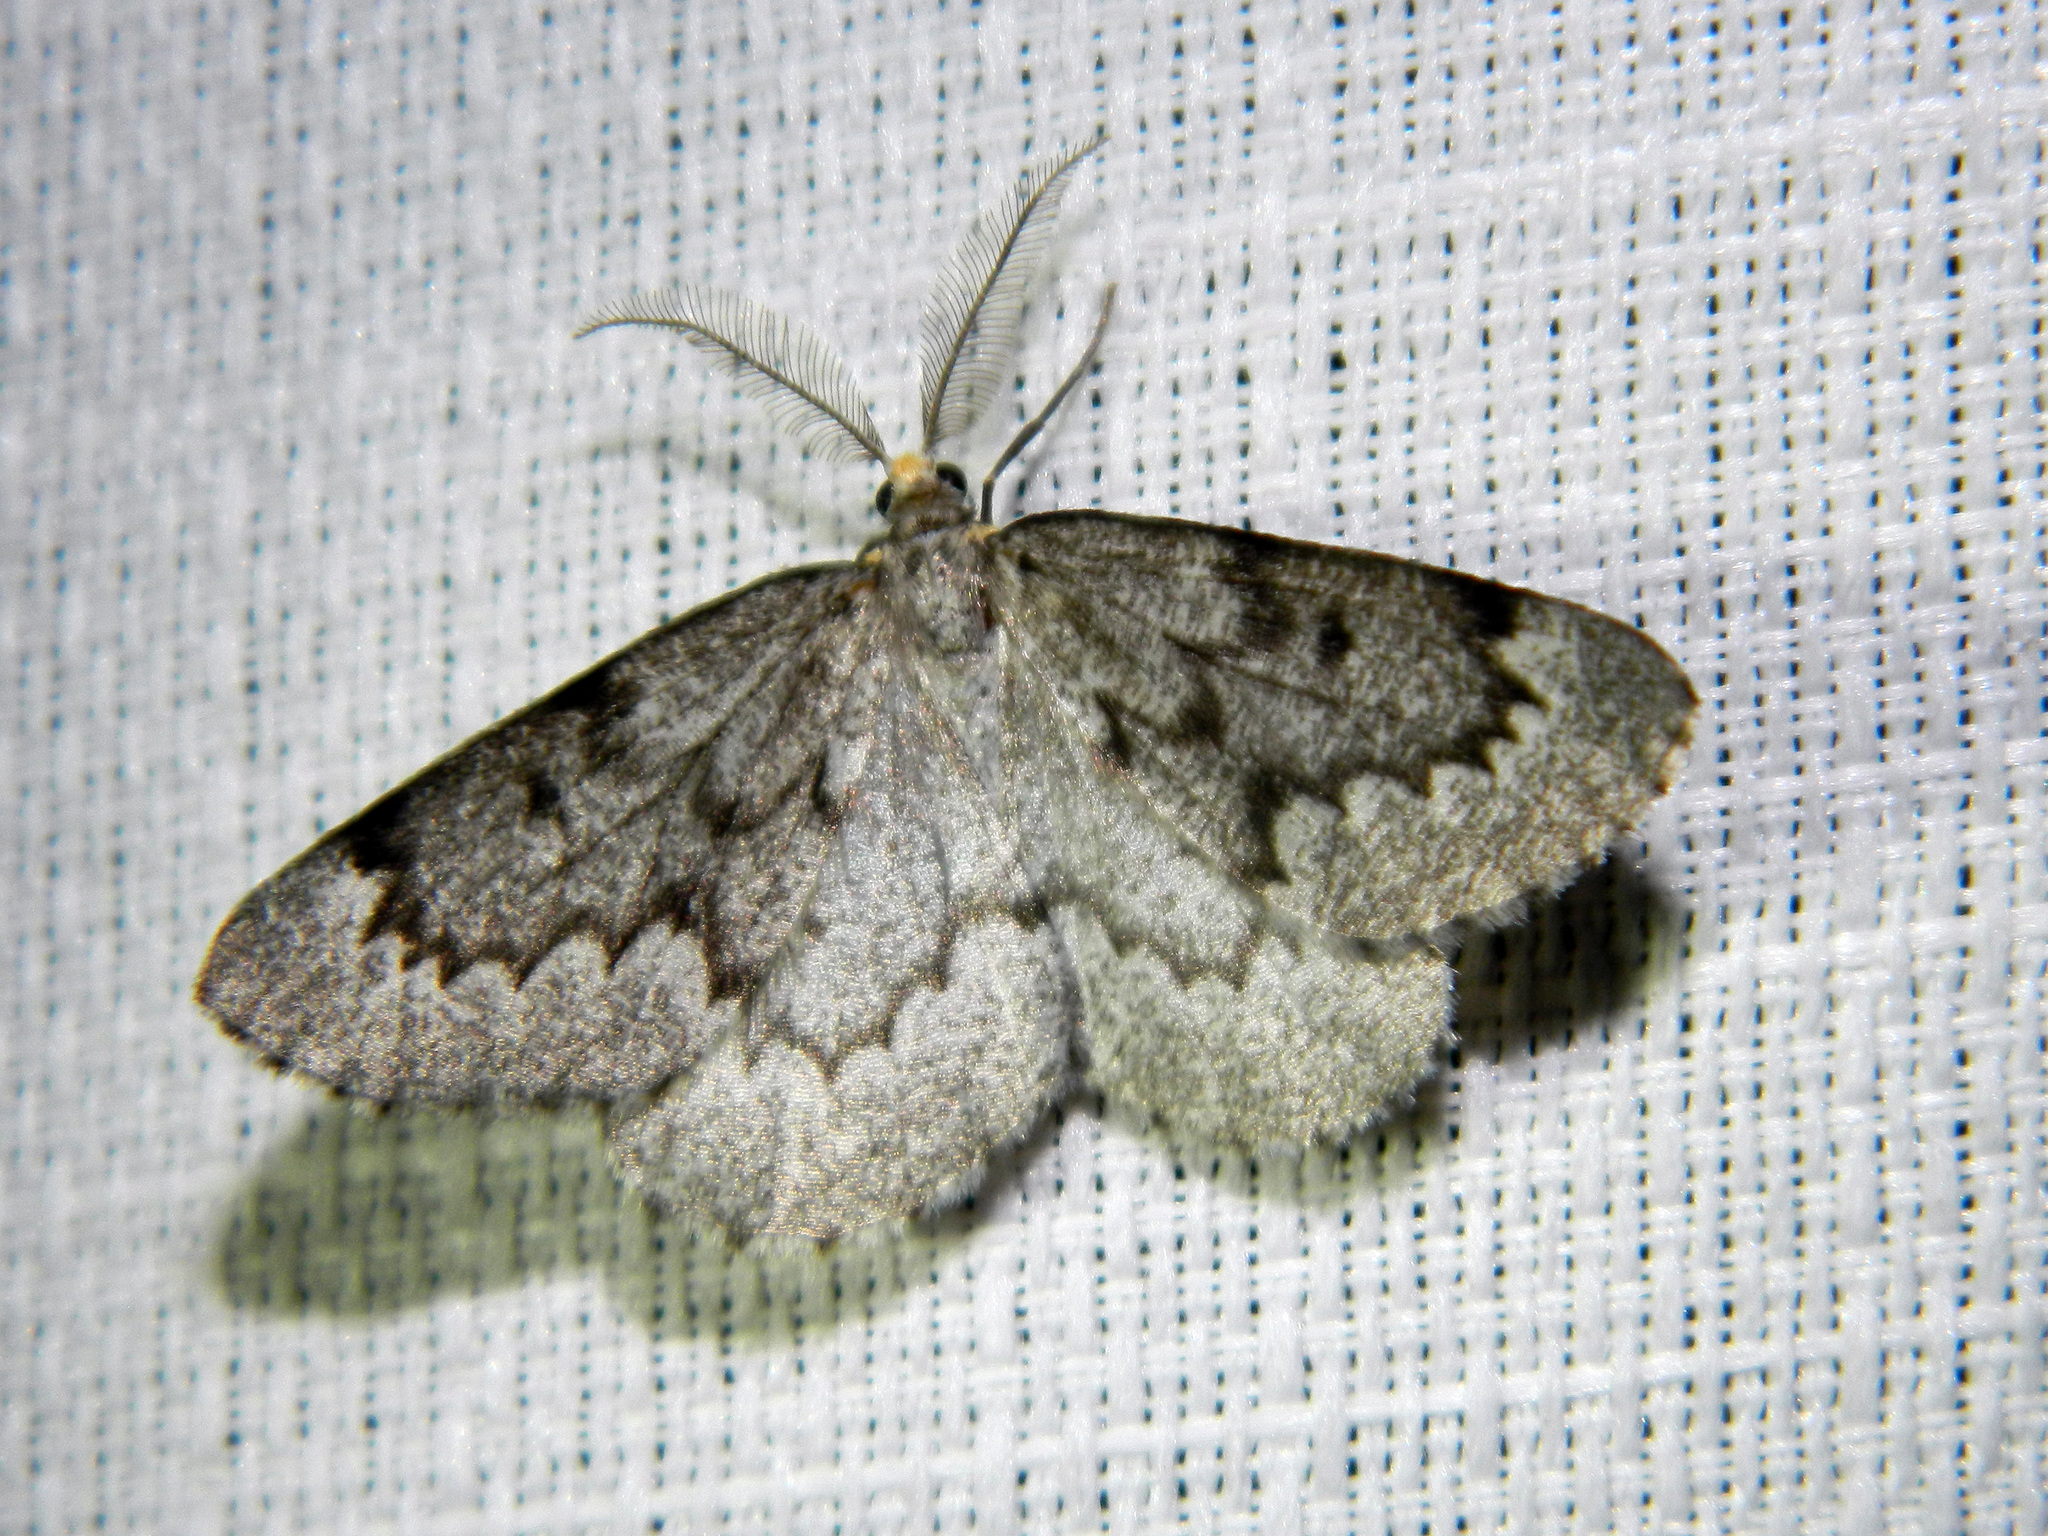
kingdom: Animalia
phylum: Arthropoda
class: Insecta
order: Lepidoptera
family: Geometridae
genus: Nepytia
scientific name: Nepytia canosaria
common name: False hemlock looper
